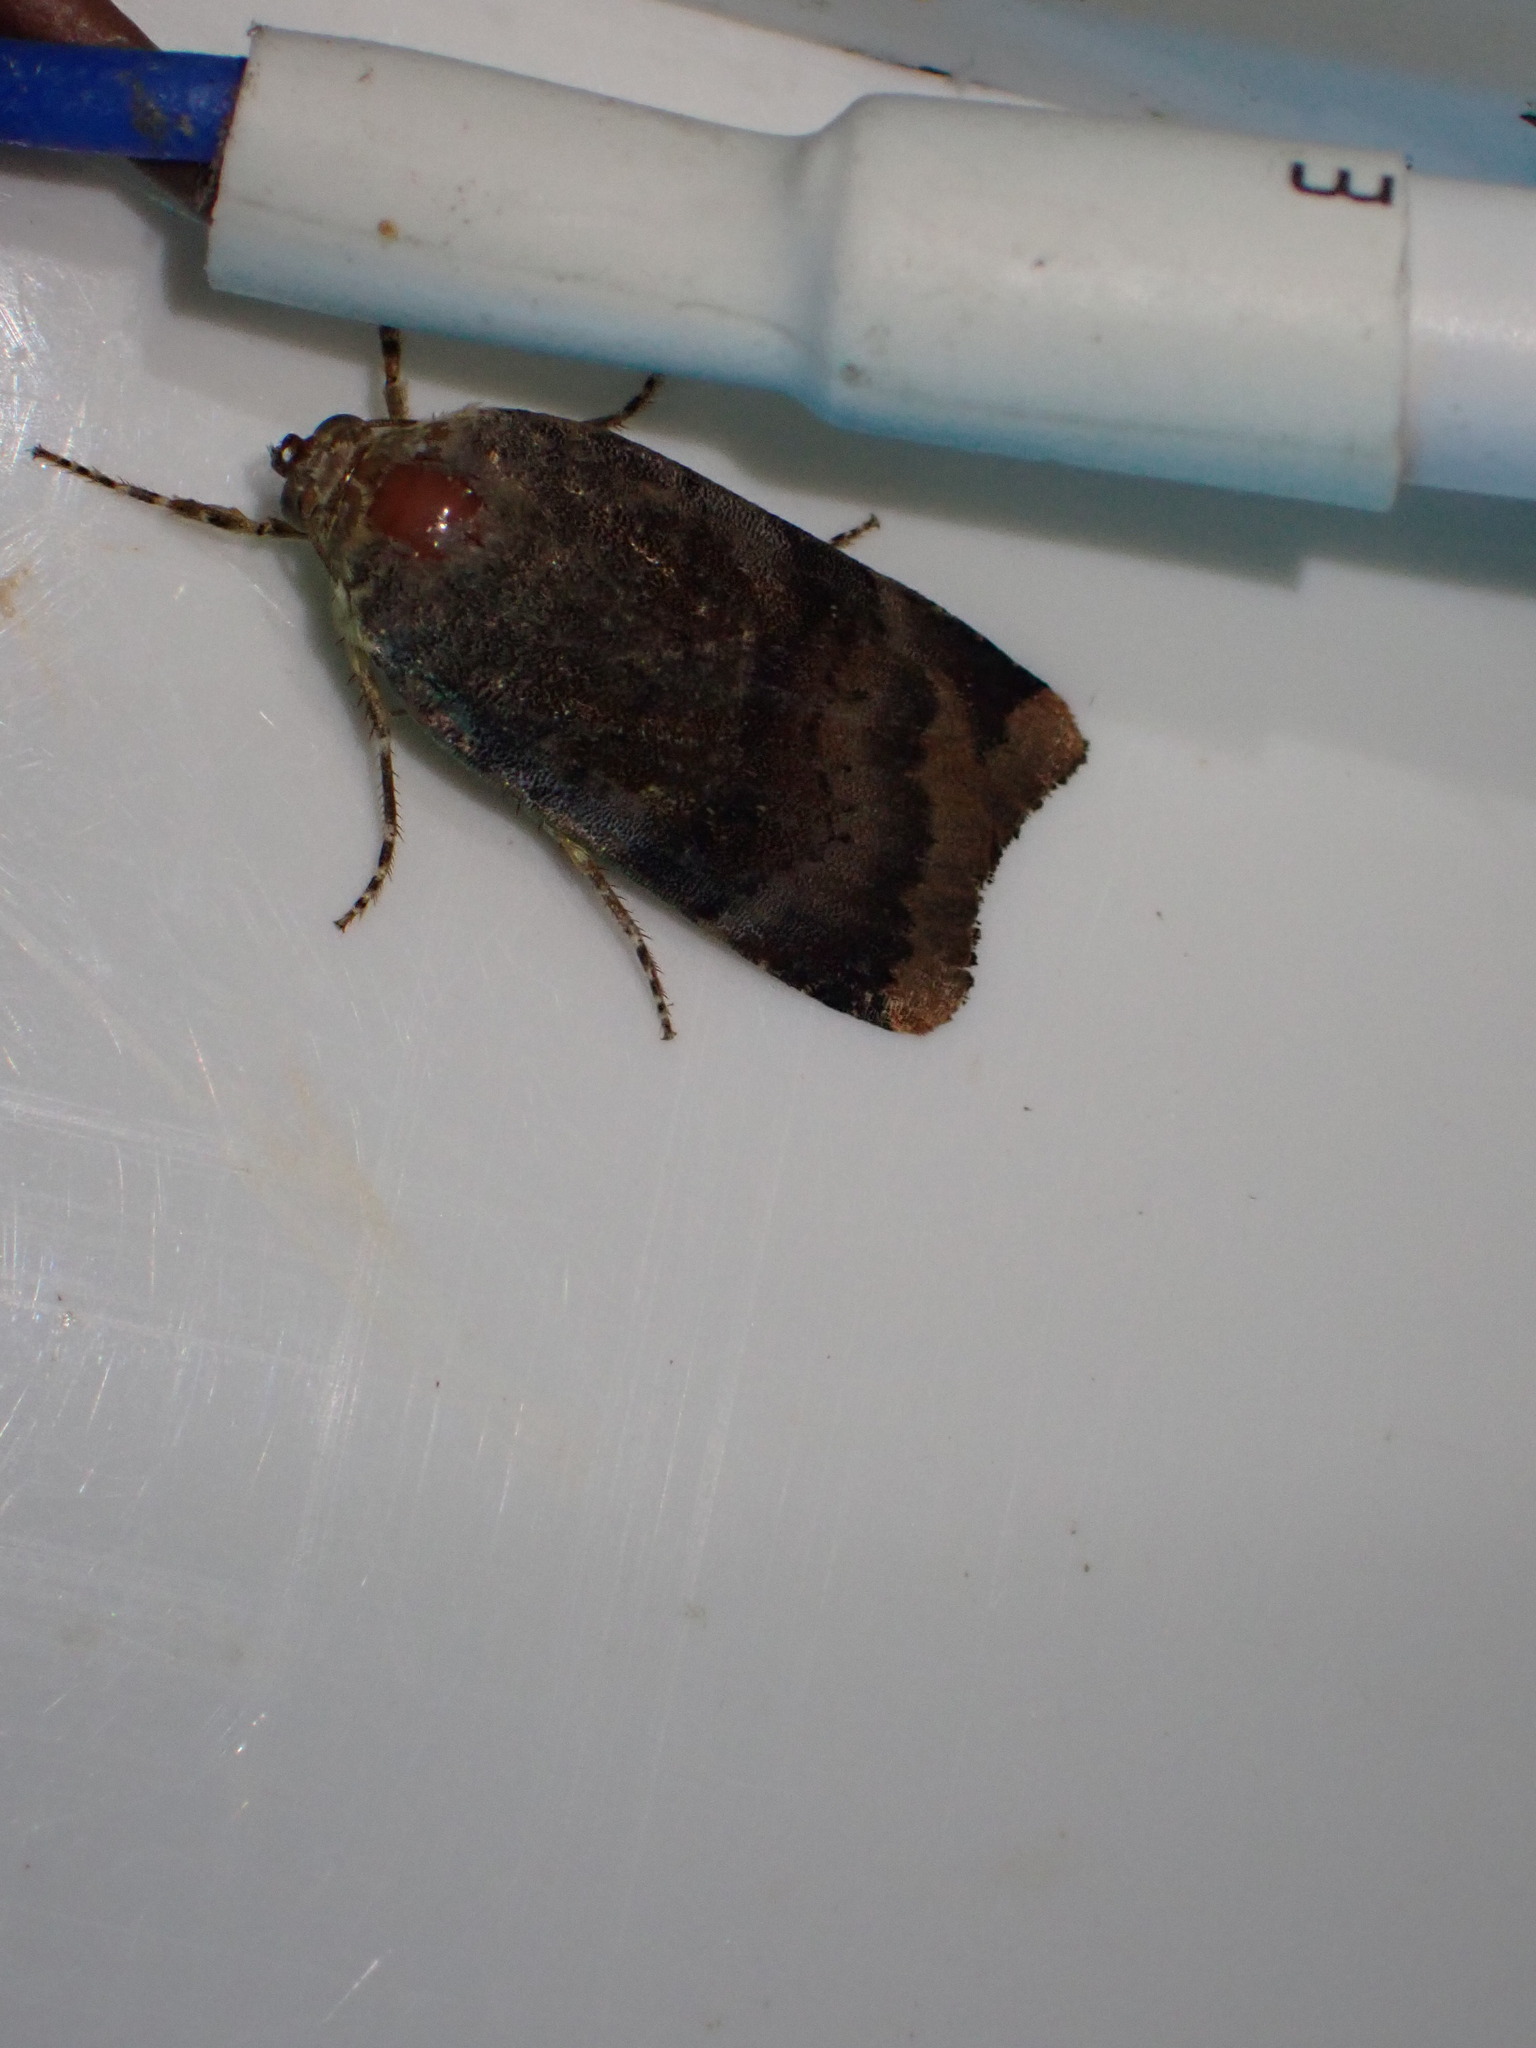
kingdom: Animalia
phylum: Arthropoda
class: Insecta
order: Lepidoptera
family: Noctuidae
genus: Noctua
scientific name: Noctua janthe
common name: Lesser broad-bordered yellow underwing
